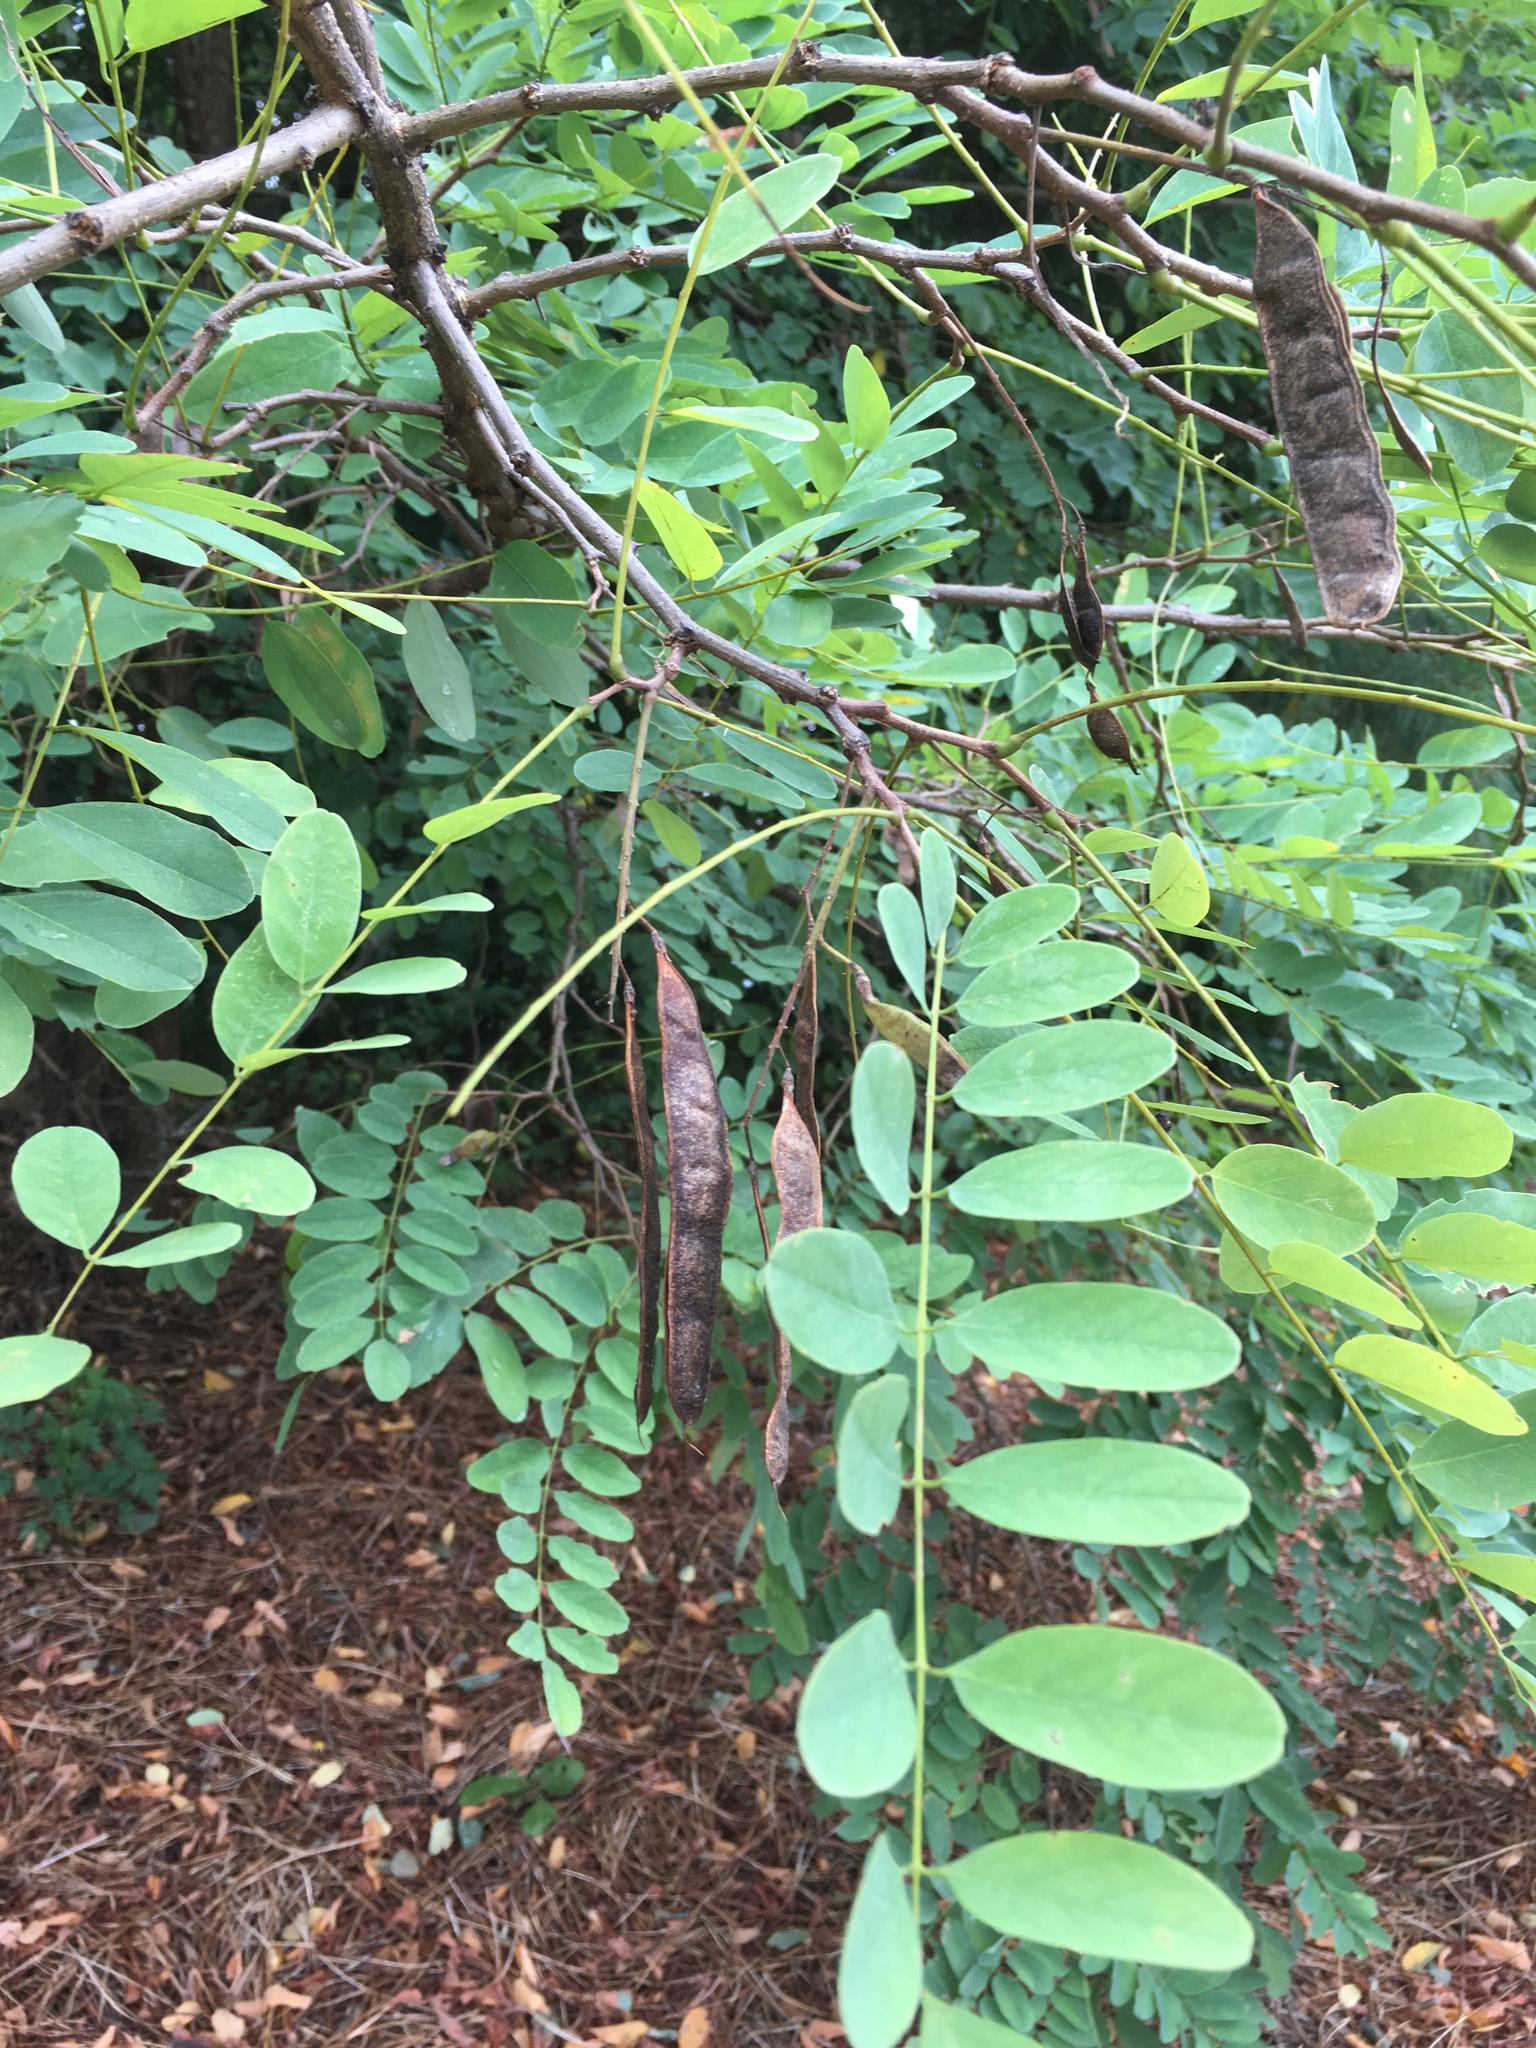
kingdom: Plantae
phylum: Tracheophyta
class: Magnoliopsida
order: Fabales
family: Fabaceae
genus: Robinia
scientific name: Robinia pseudoacacia
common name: Black locust
